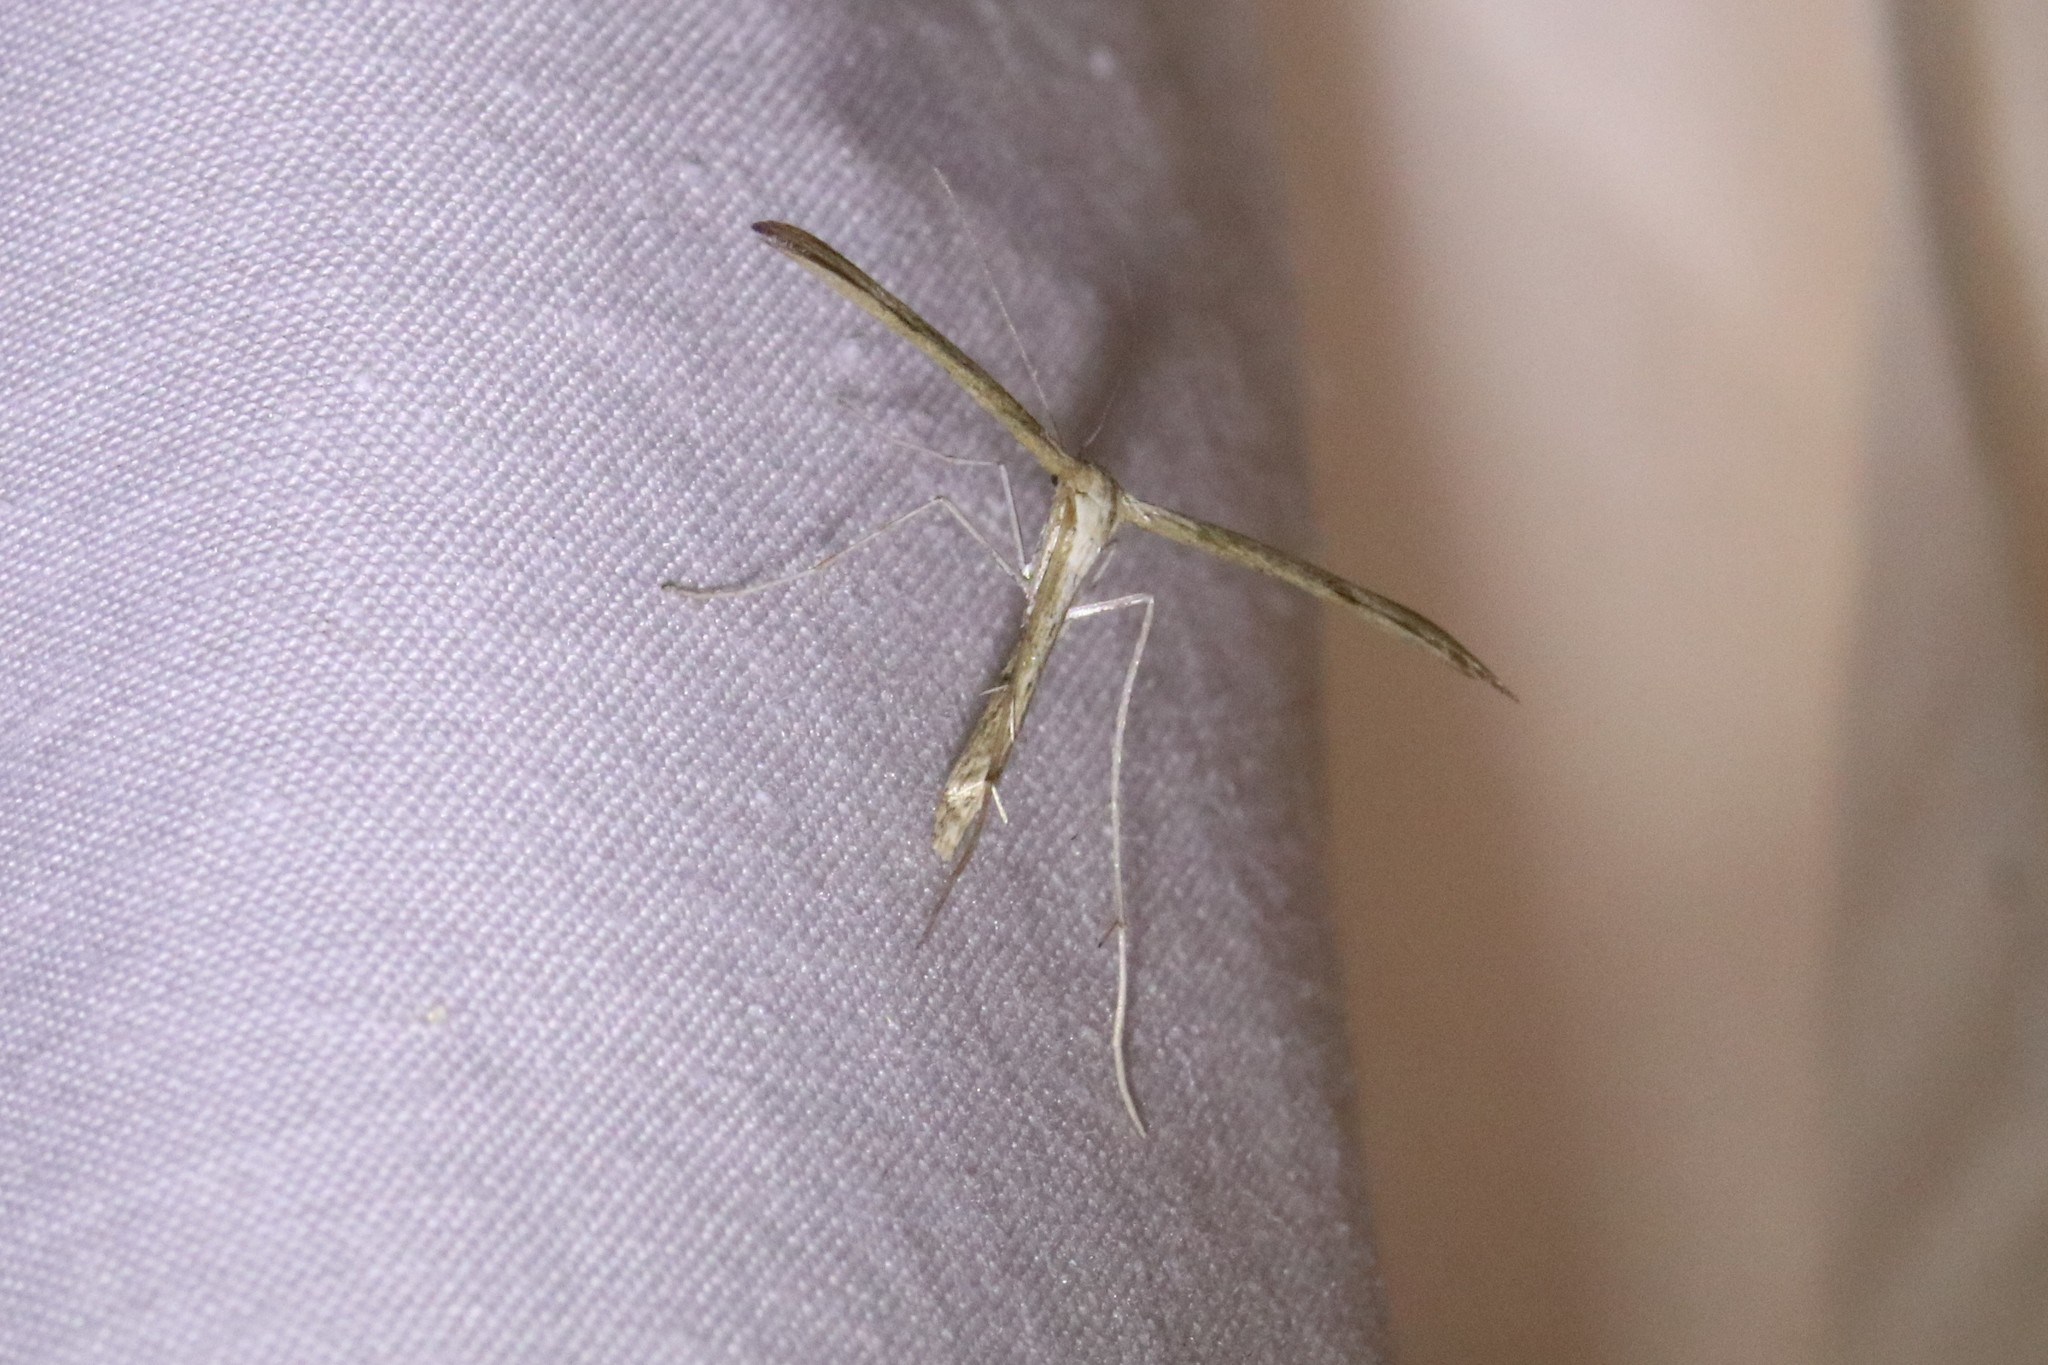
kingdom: Animalia
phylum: Arthropoda
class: Insecta
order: Lepidoptera
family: Pterophoridae
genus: Emmelina
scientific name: Emmelina monodactyla
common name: Common plume
